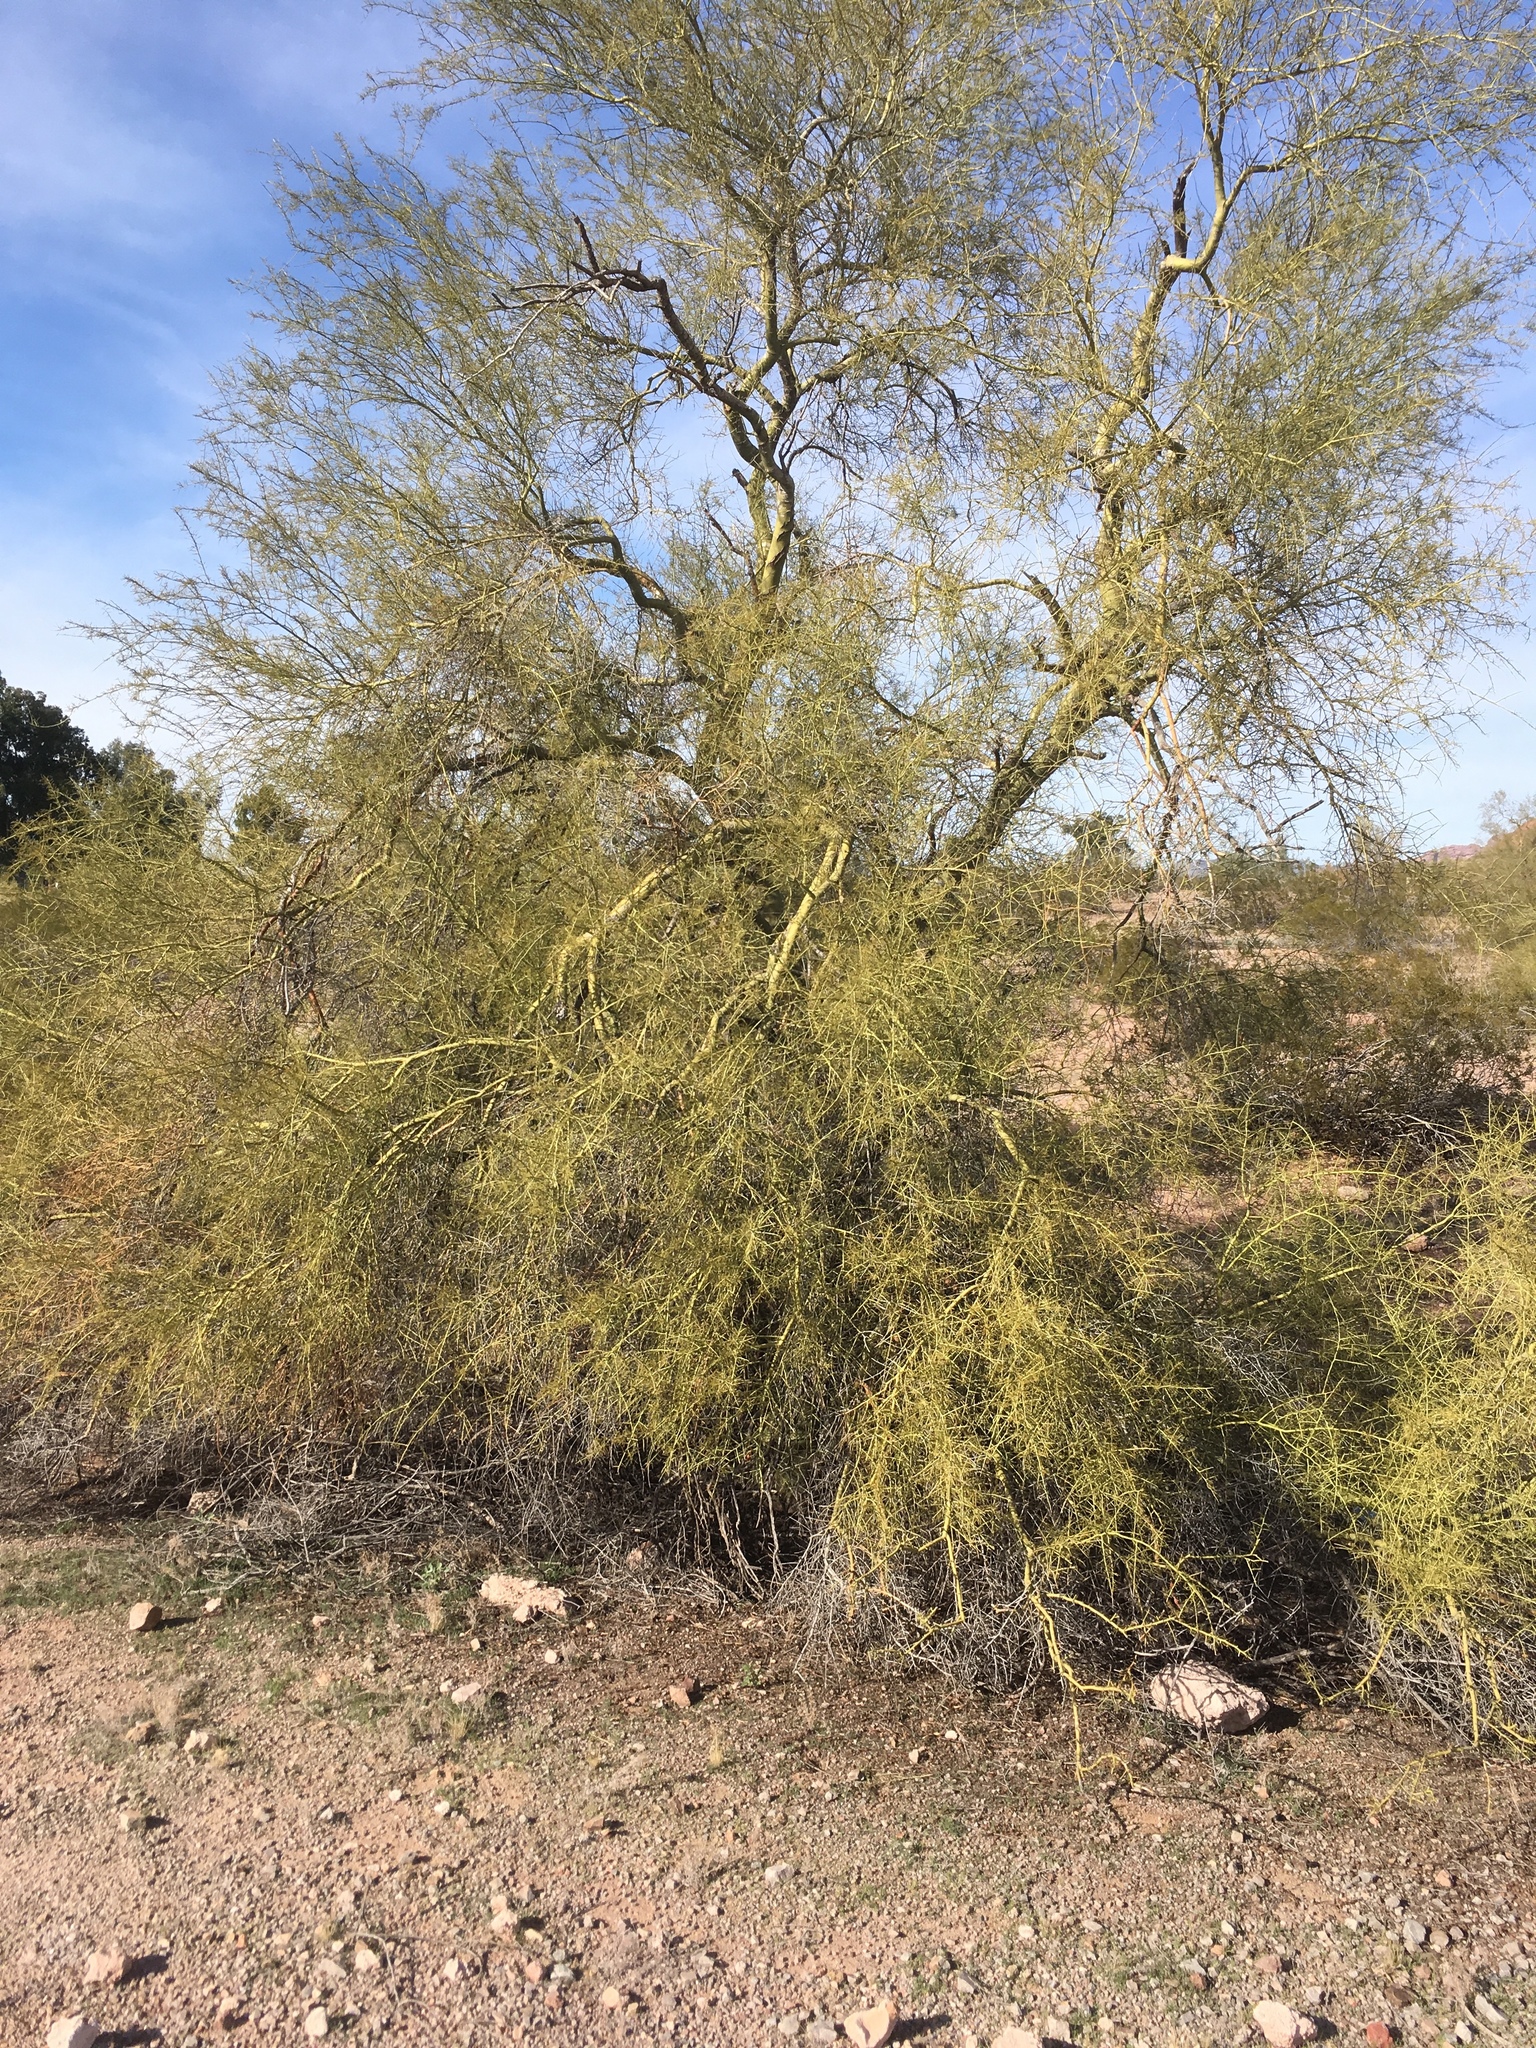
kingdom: Plantae
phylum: Tracheophyta
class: Magnoliopsida
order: Fabales
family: Fabaceae
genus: Parkinsonia
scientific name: Parkinsonia microphylla
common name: Yellow paloverde
